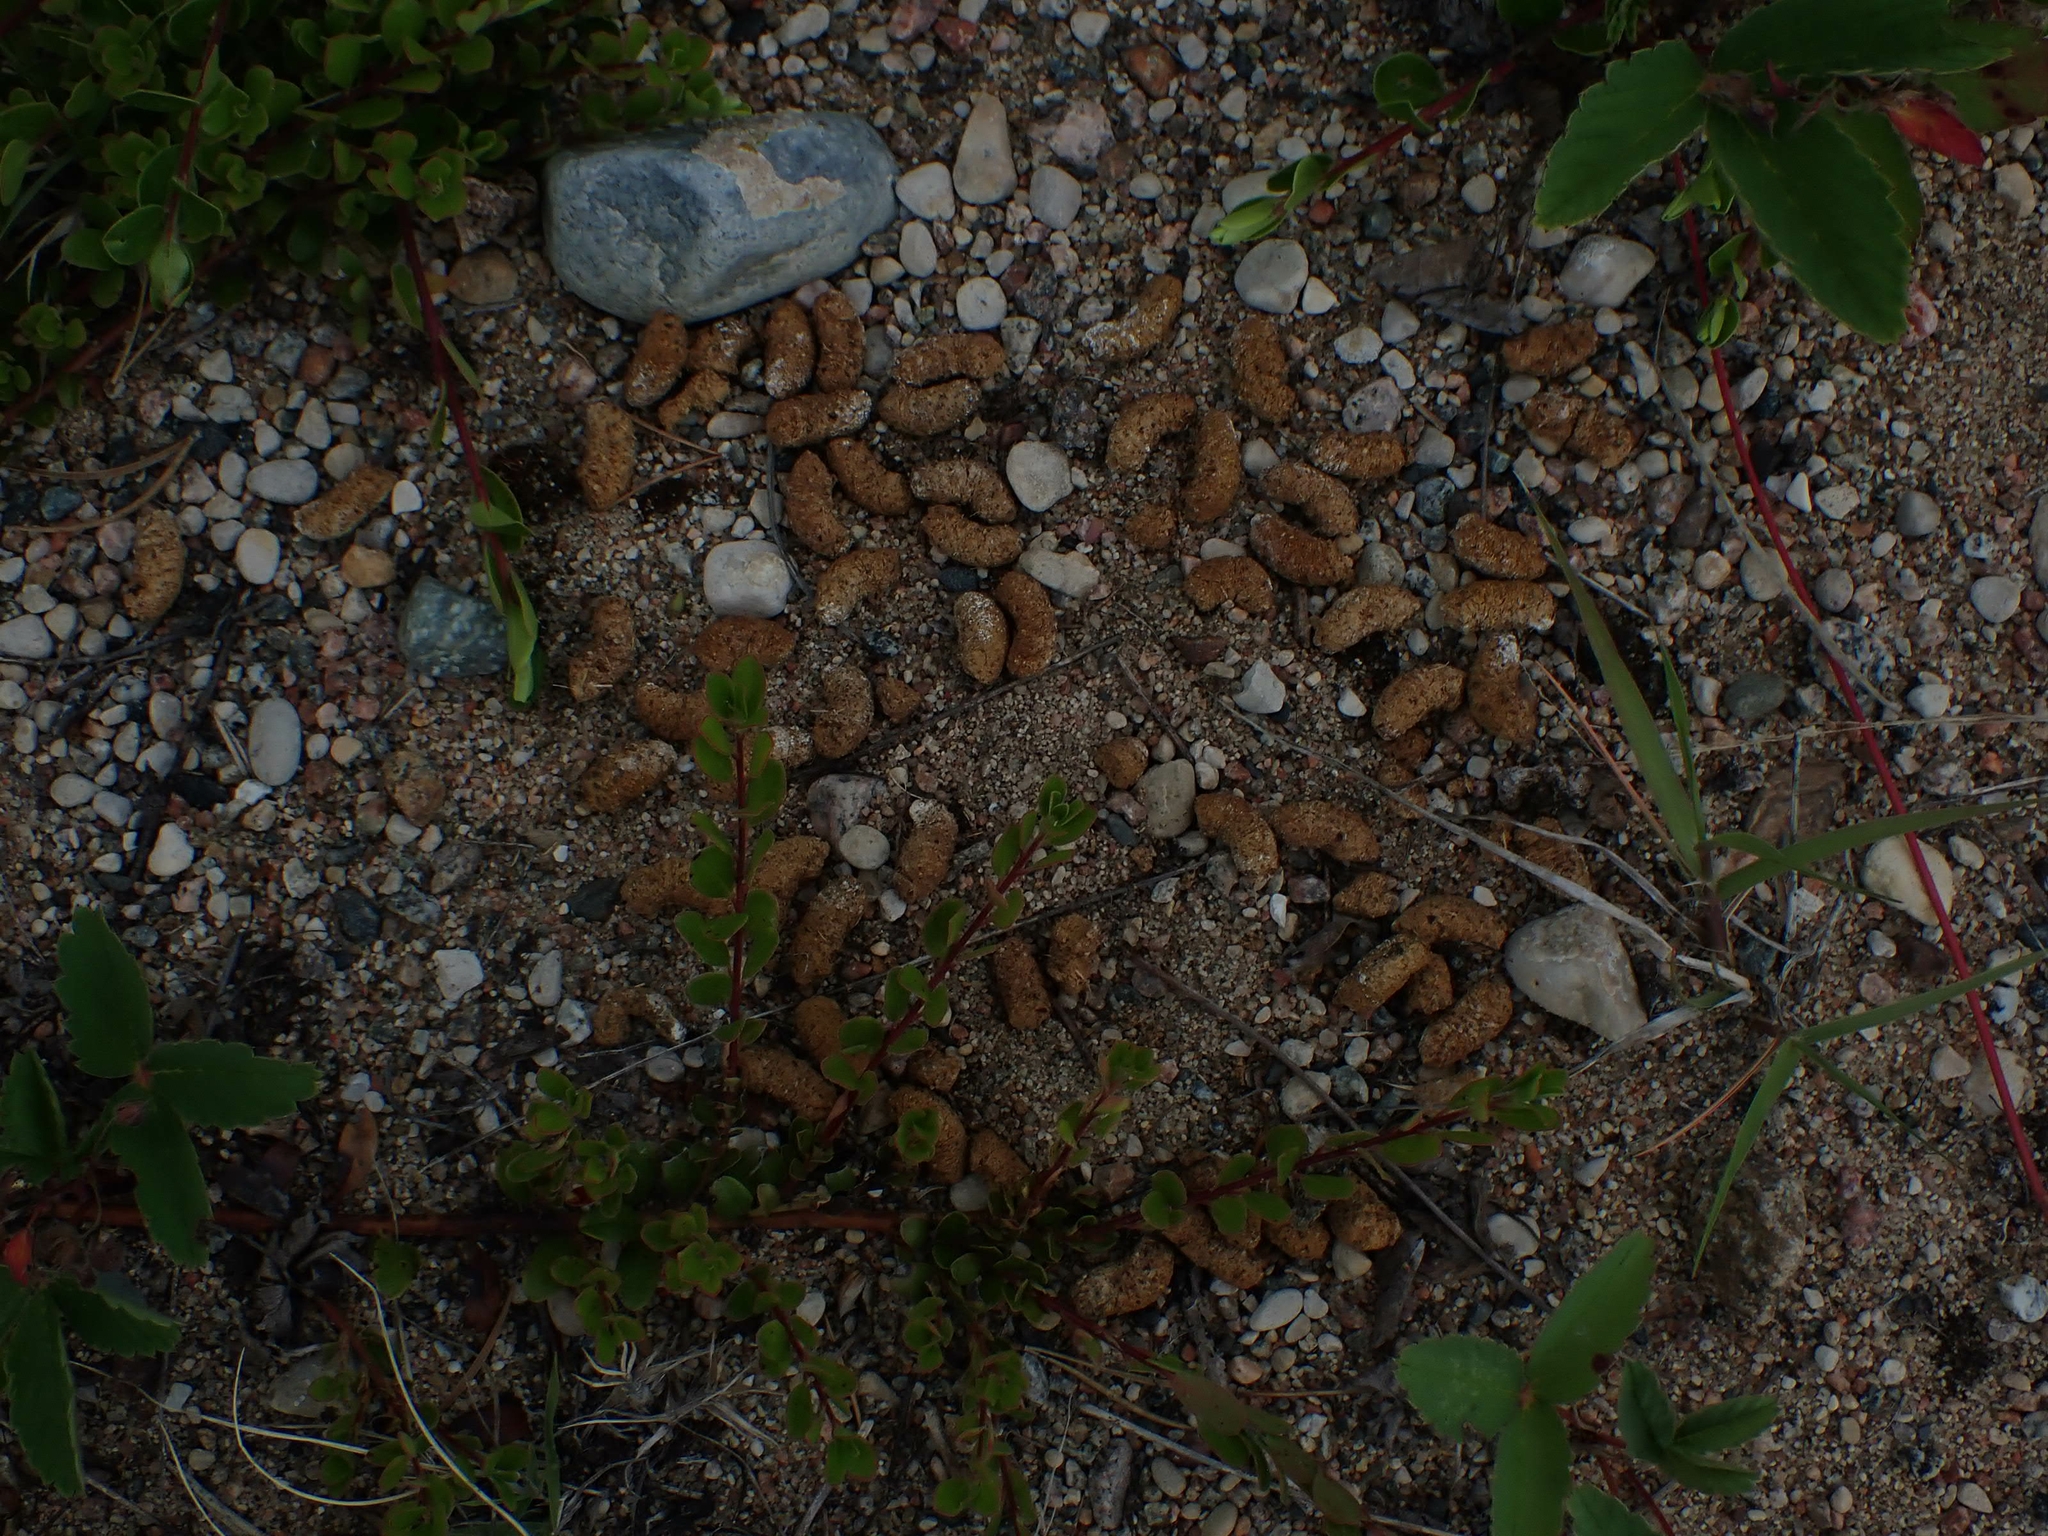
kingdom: Animalia
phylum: Chordata
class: Aves
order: Galliformes
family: Phasianidae
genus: Bonasa
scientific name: Bonasa umbellus
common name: Ruffed grouse
